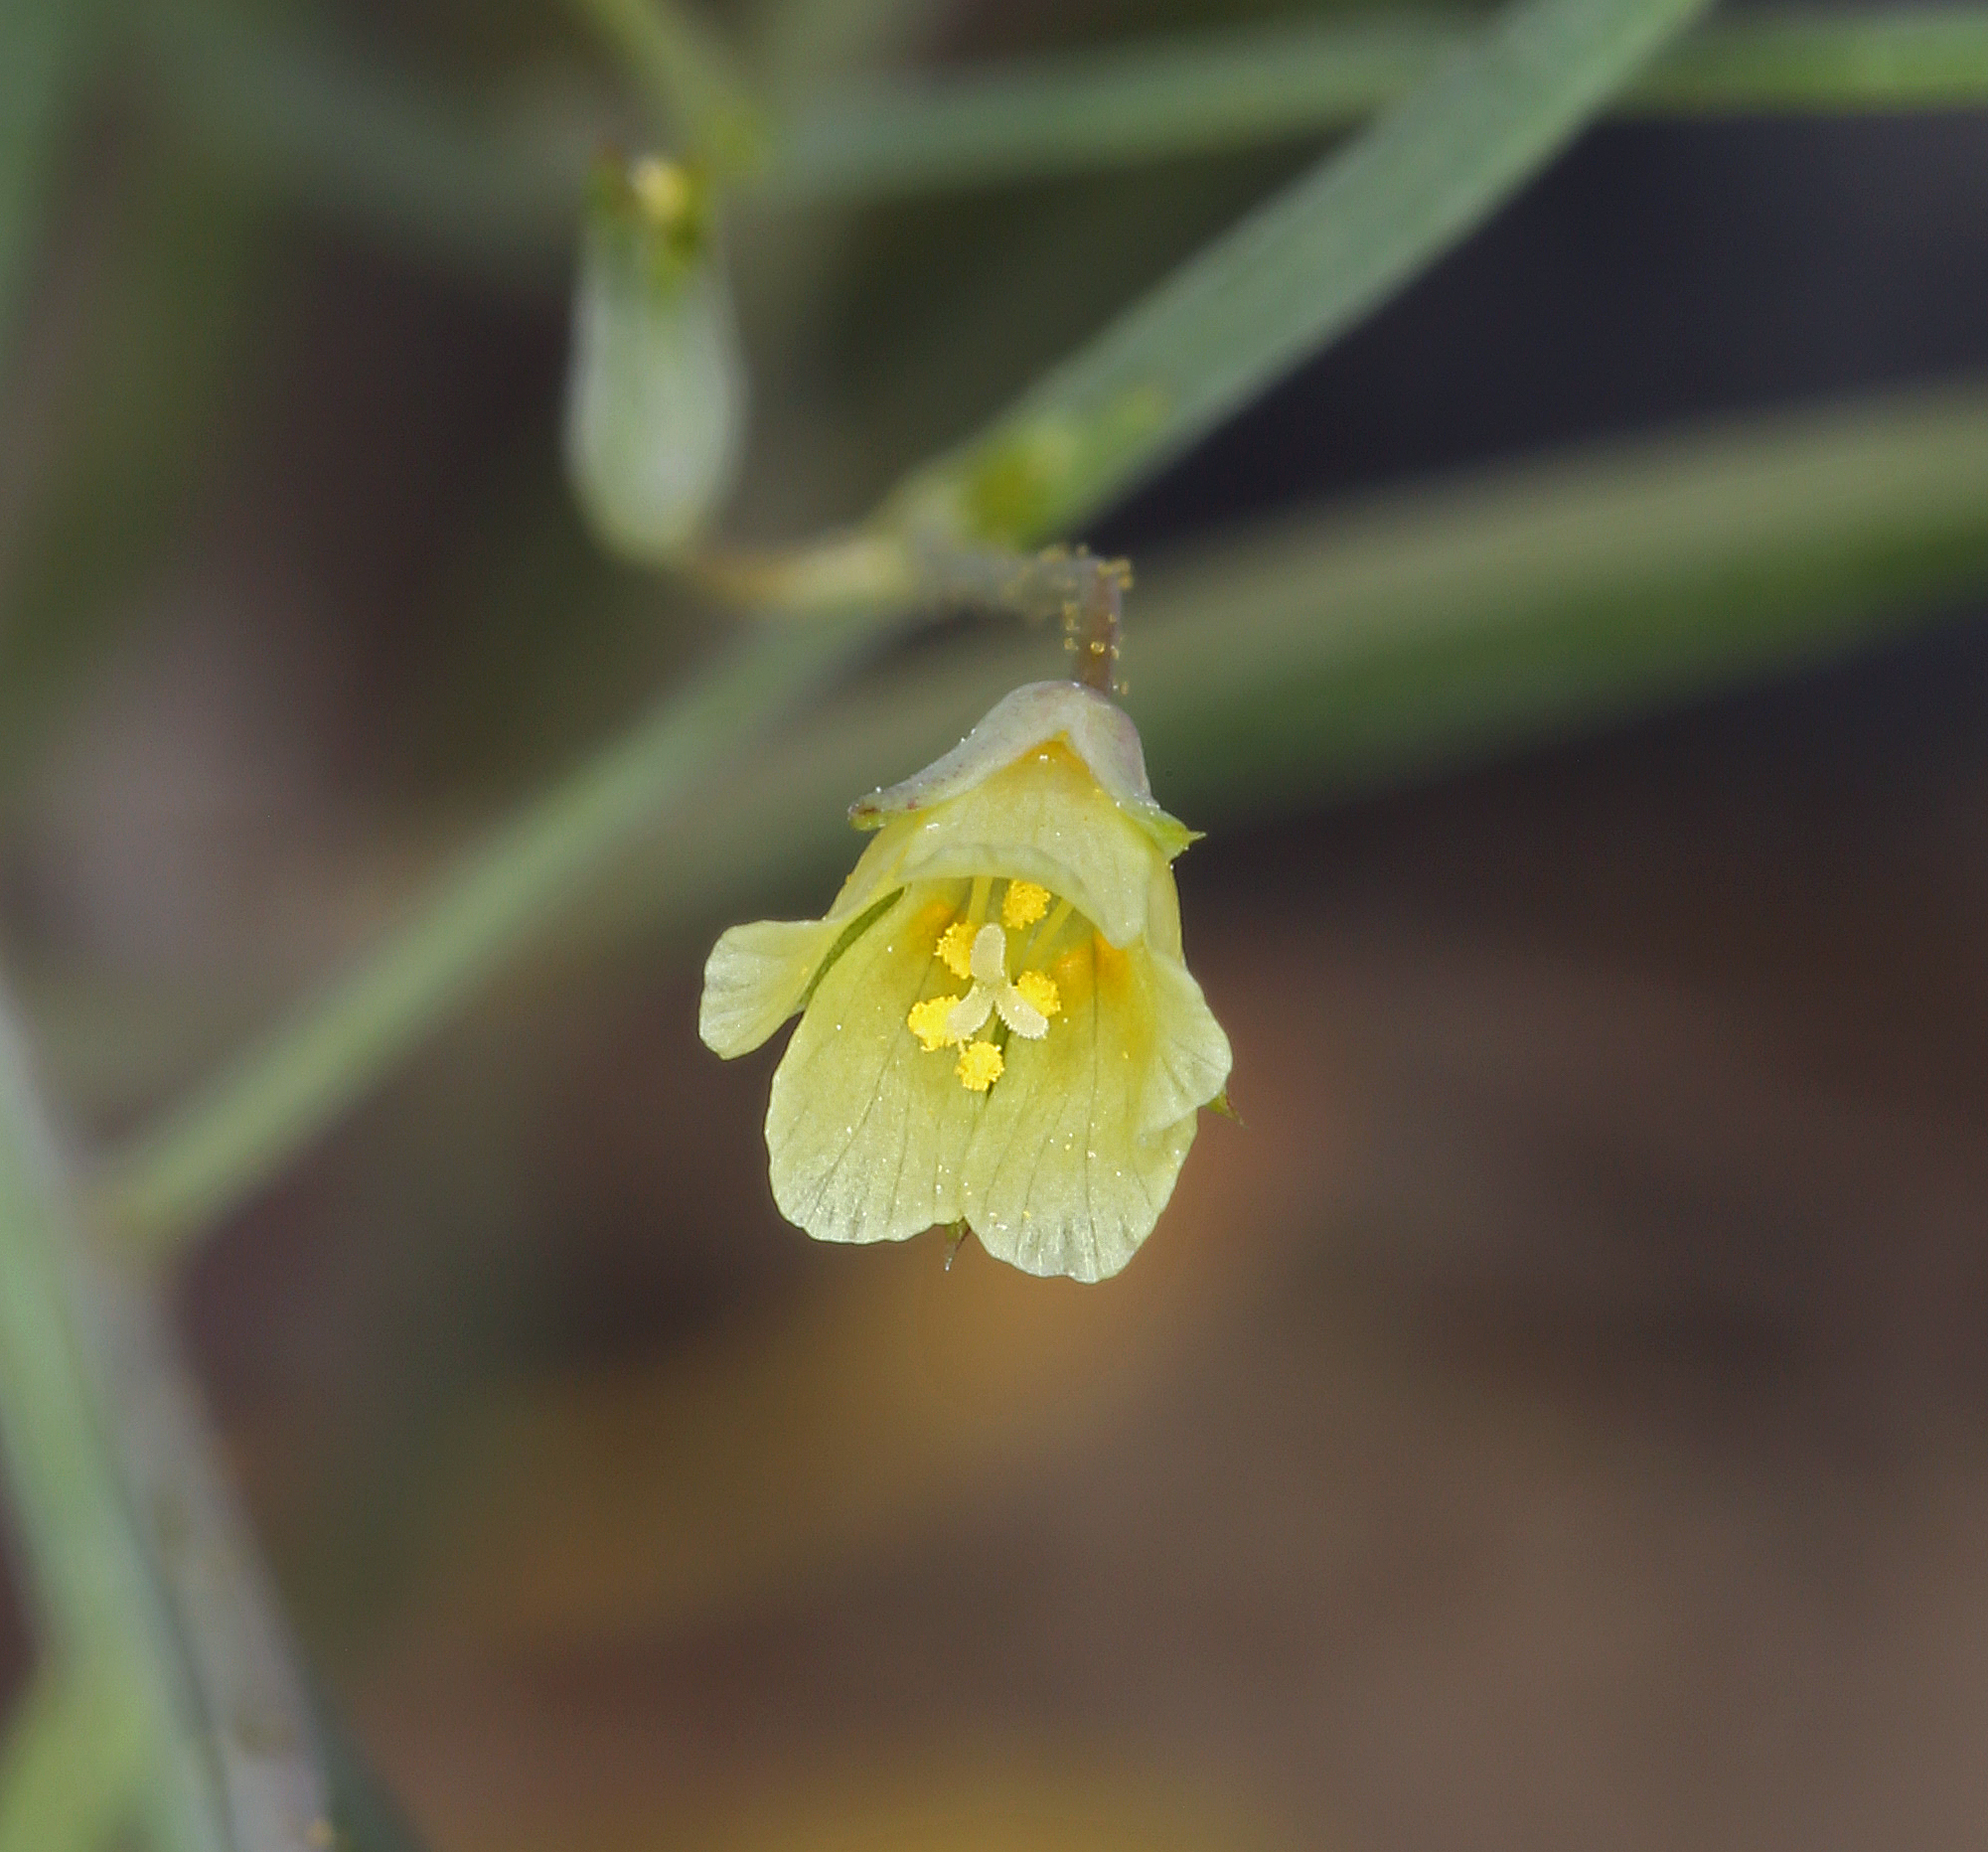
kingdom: Plantae
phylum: Tracheophyta
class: Magnoliopsida
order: Ericales
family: Polemoniaceae
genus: Linanthus
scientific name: Linanthus filiformis
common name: Yellow gilia
